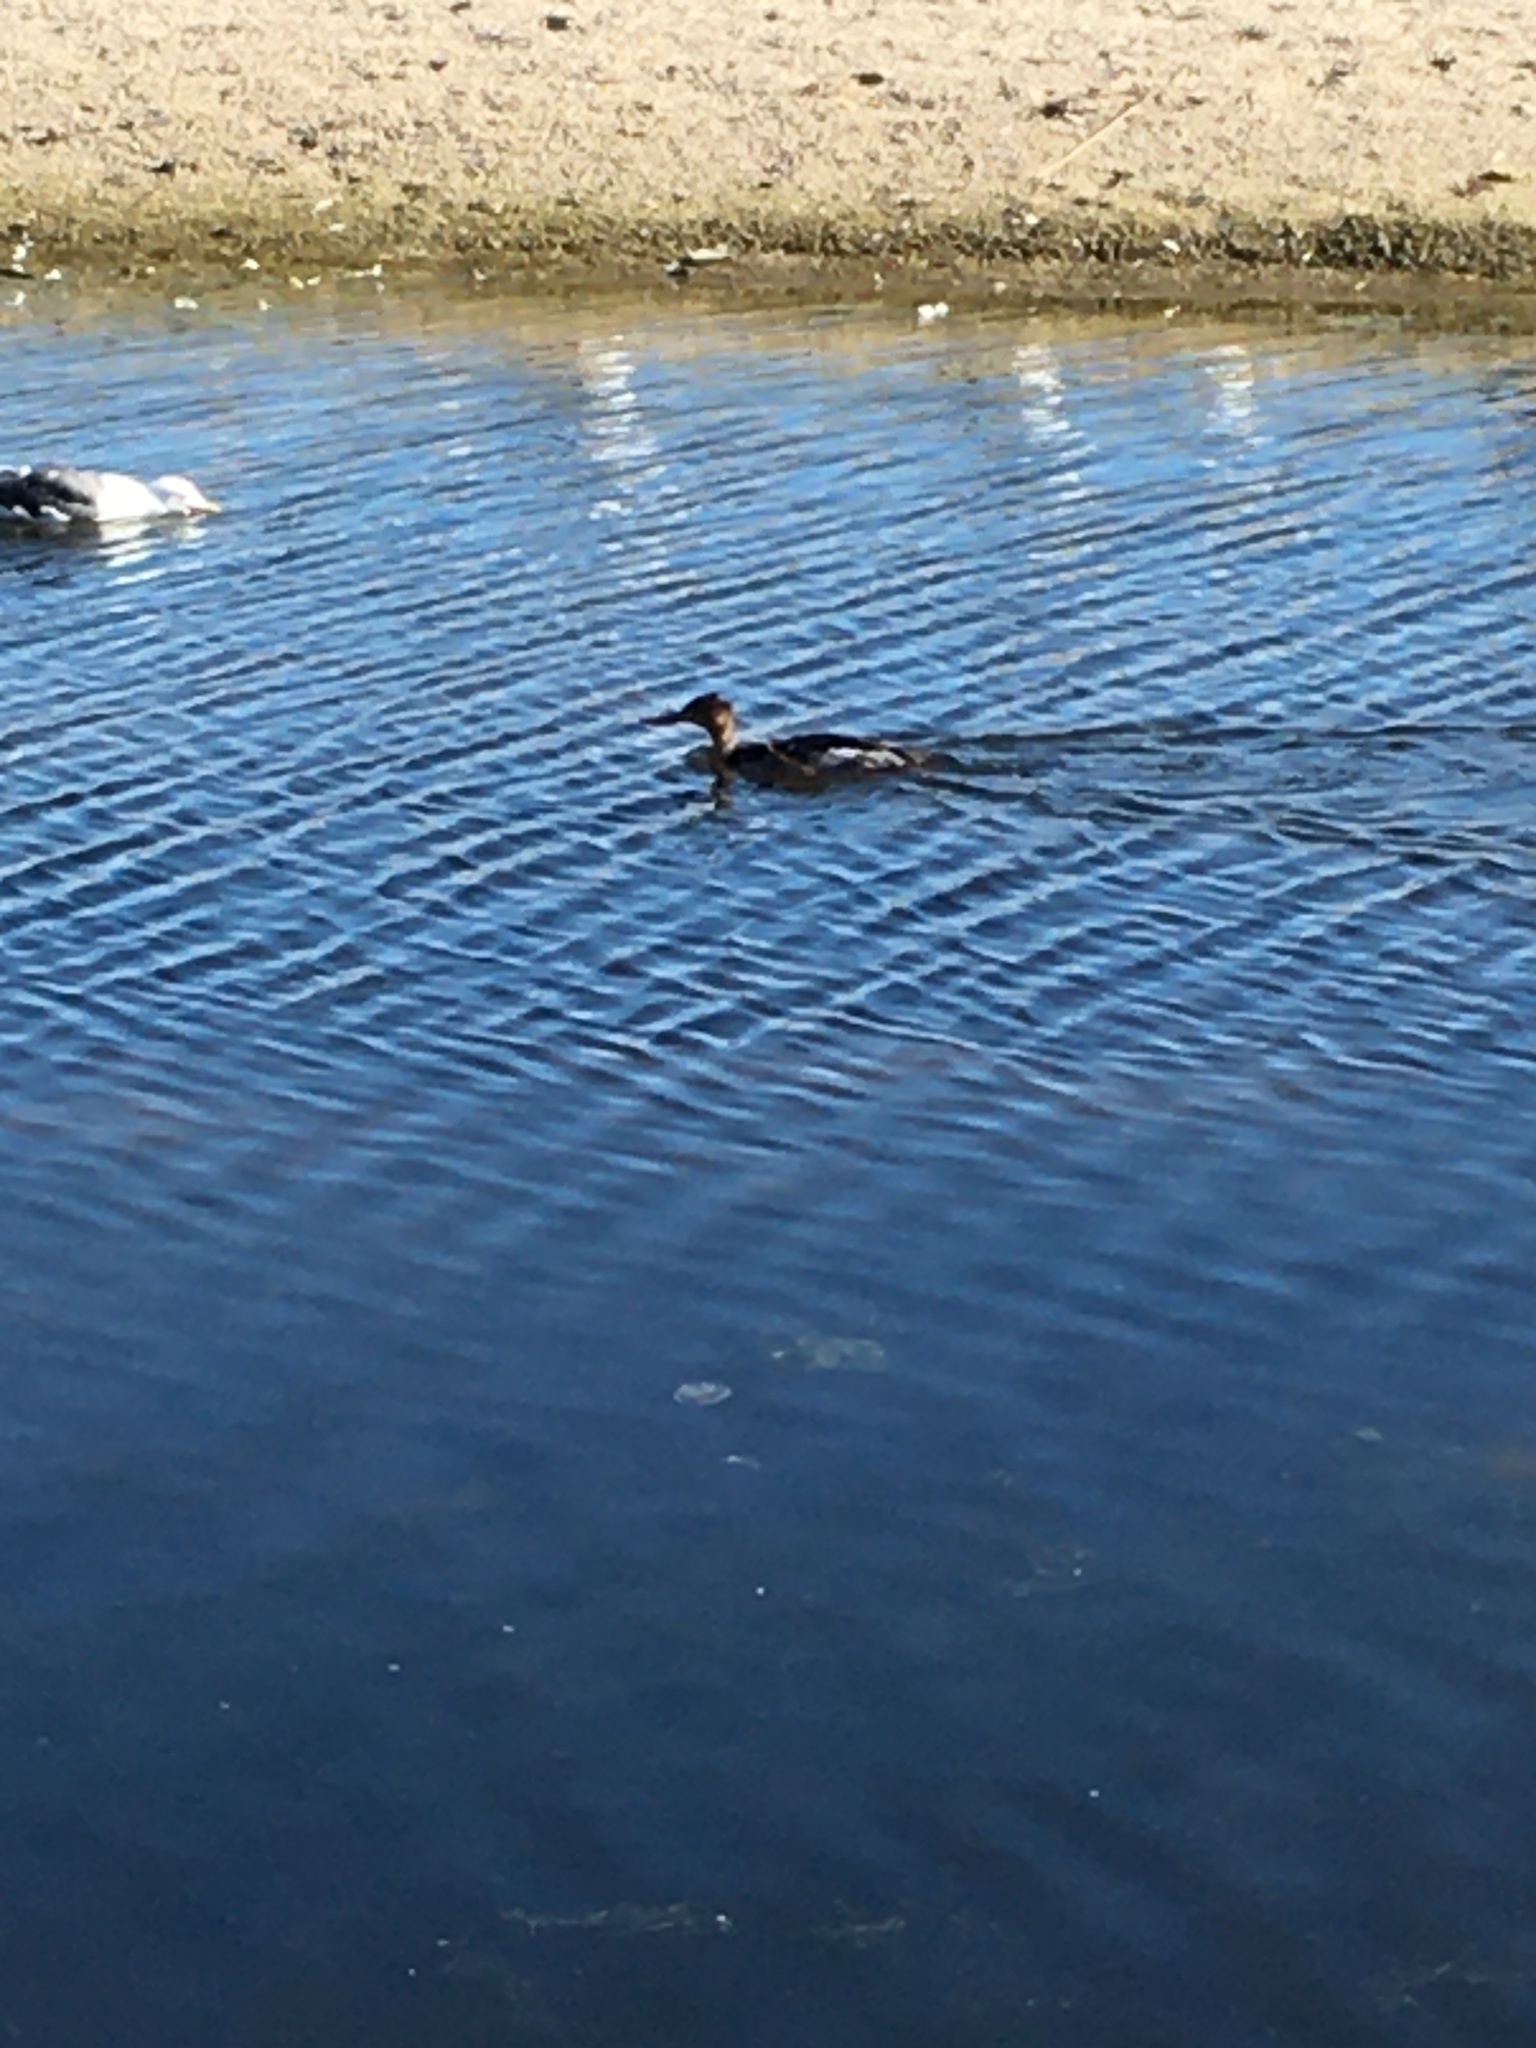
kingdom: Animalia
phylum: Chordata
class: Aves
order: Anseriformes
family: Anatidae
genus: Mergus
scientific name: Mergus serrator
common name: Red-breasted merganser
